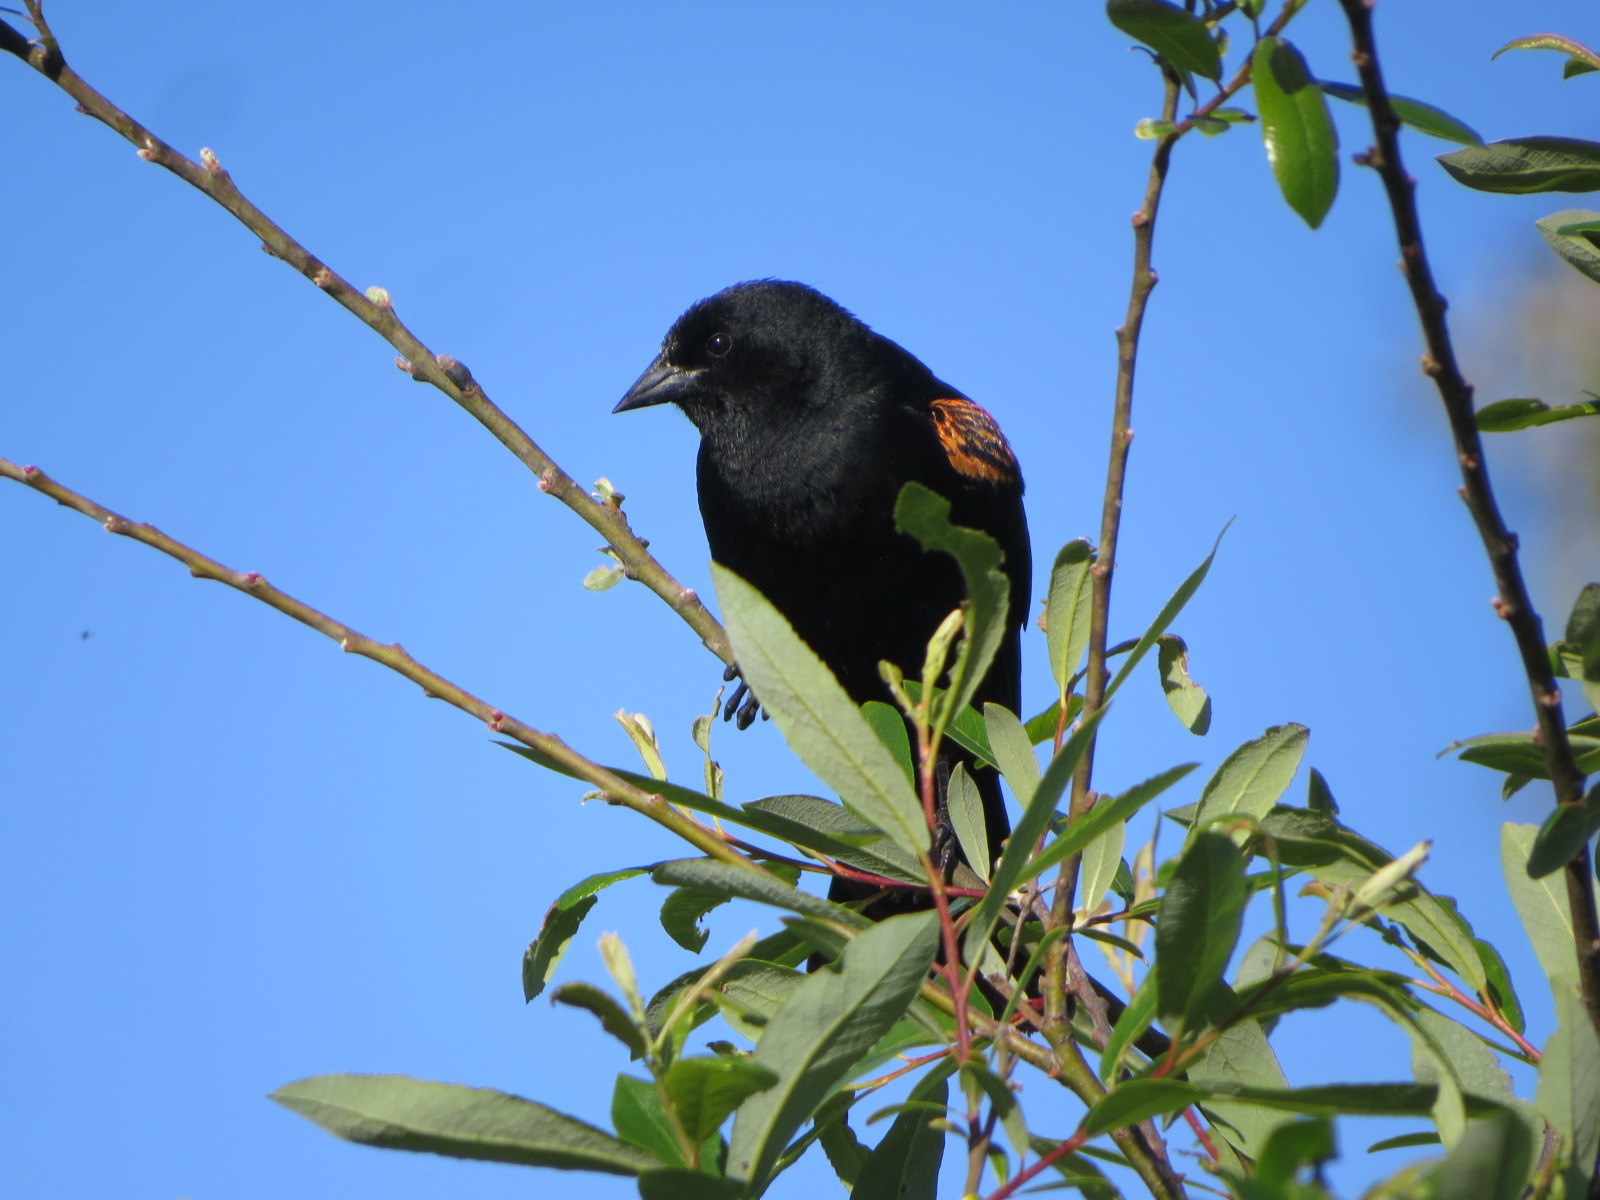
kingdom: Animalia
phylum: Chordata
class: Aves
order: Passeriformes
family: Icteridae
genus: Agelaius
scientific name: Agelaius phoeniceus
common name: Red-winged blackbird
